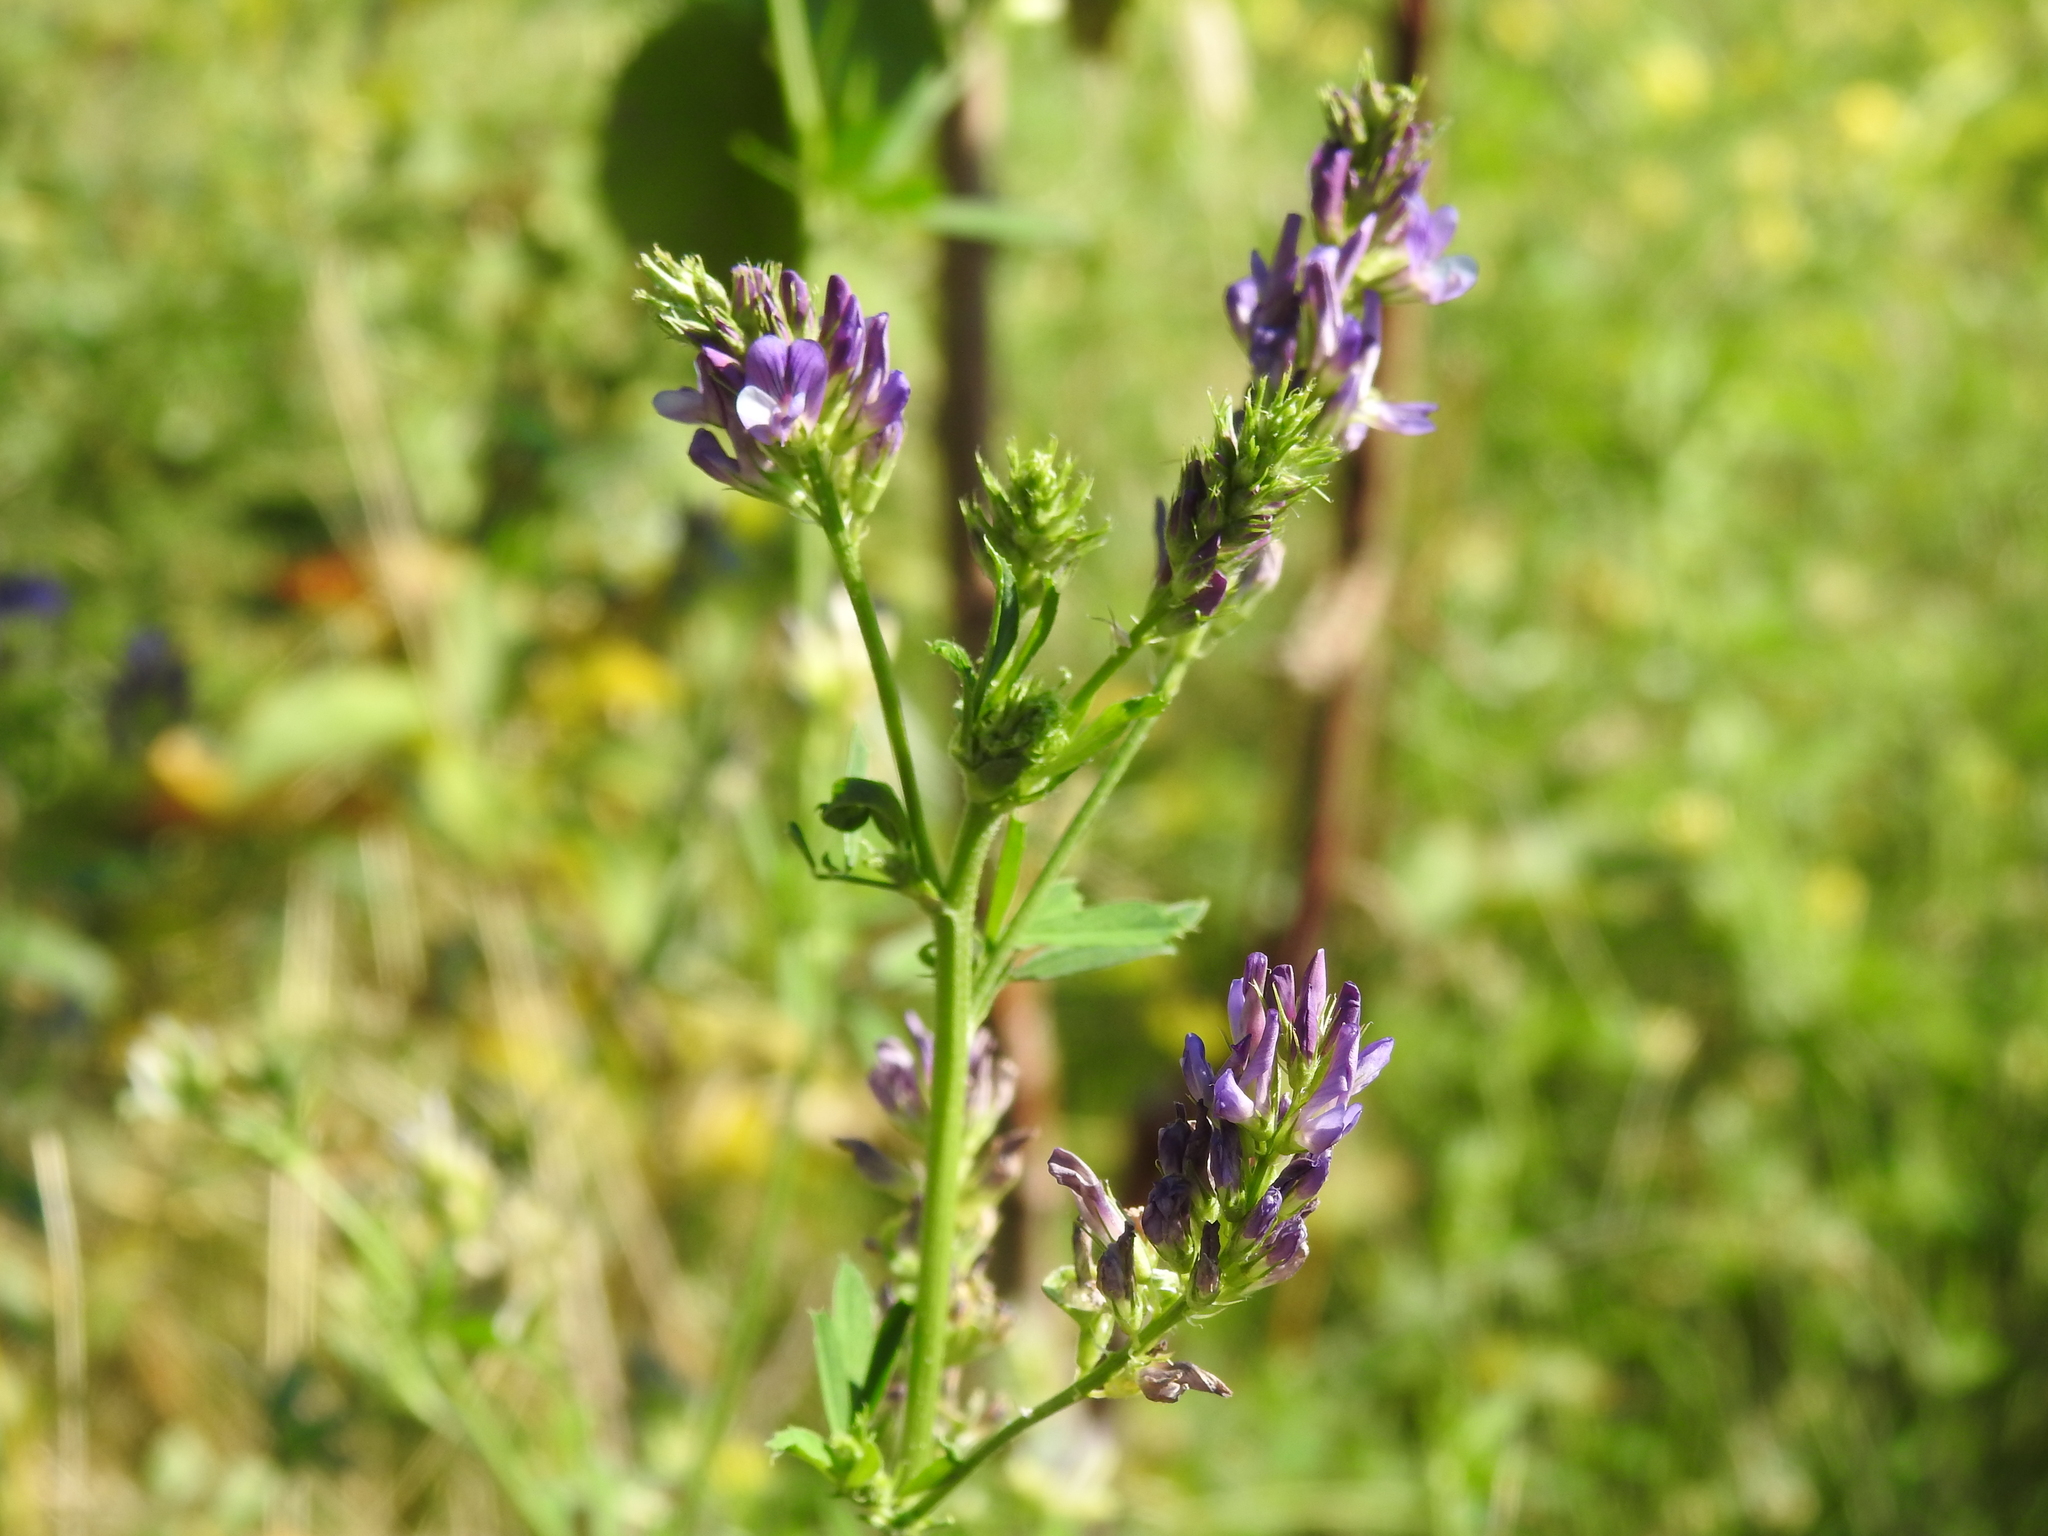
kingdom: Plantae
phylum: Tracheophyta
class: Magnoliopsida
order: Fabales
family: Fabaceae
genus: Medicago
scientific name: Medicago sativa
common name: Alfalfa
